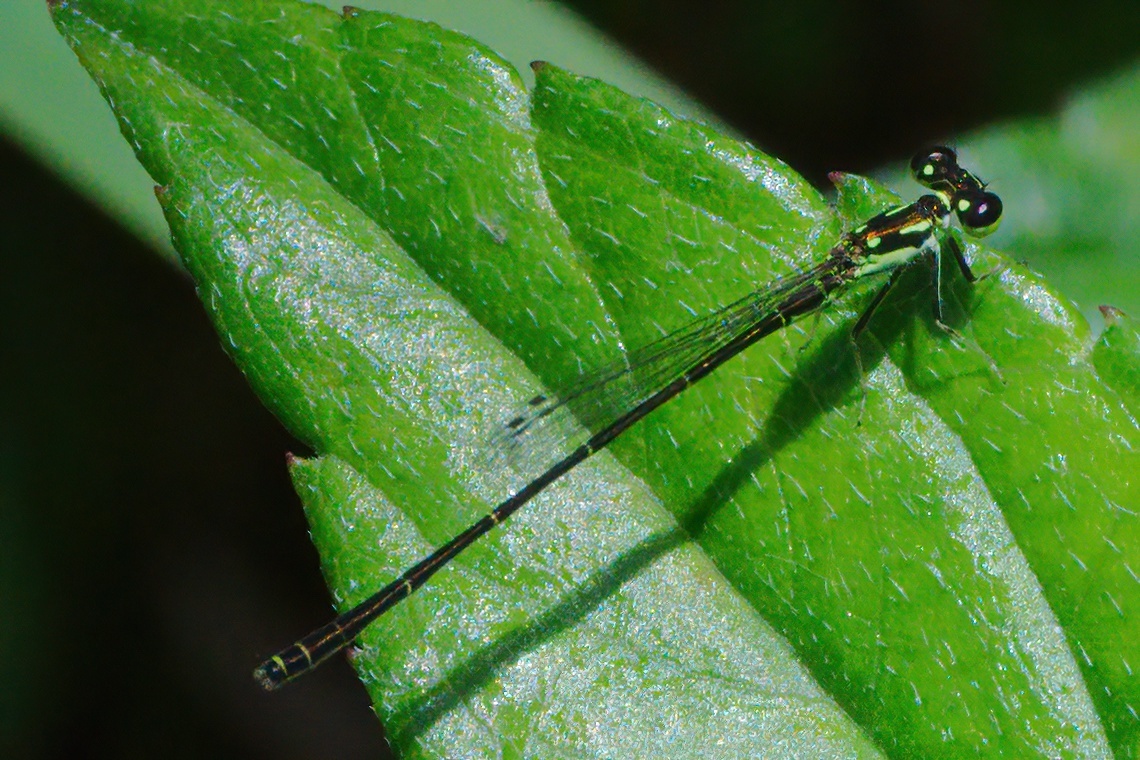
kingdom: Animalia
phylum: Arthropoda
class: Insecta
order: Odonata
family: Coenagrionidae
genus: Ischnura
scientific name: Ischnura posita
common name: Fragile forktail
